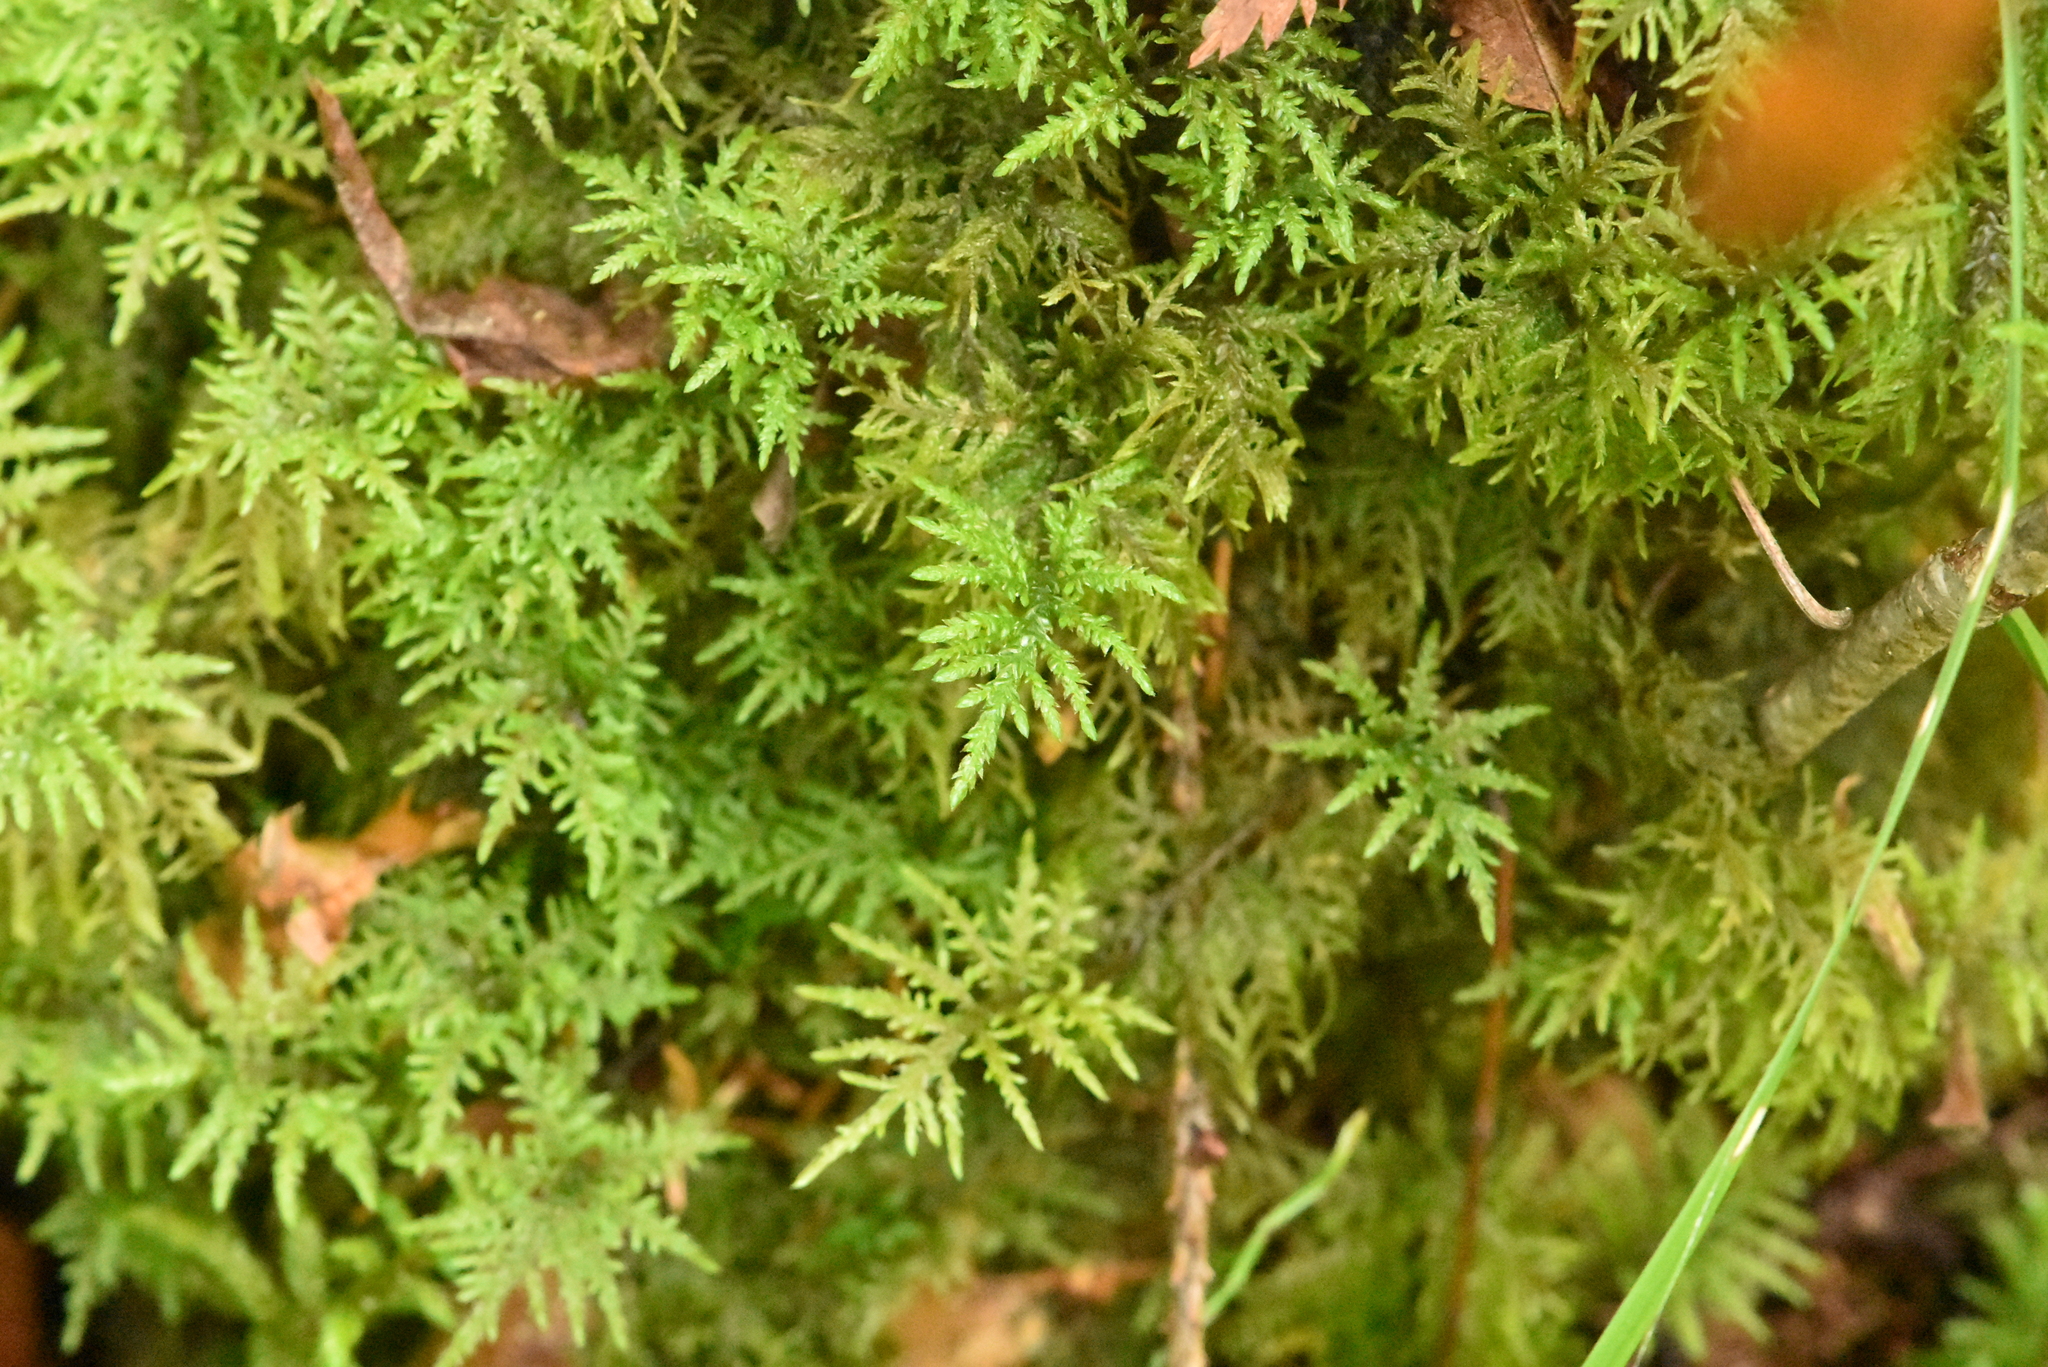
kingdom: Plantae
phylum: Bryophyta
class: Bryopsida
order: Hypnales
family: Hylocomiaceae
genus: Hylocomium
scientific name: Hylocomium splendens
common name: Stairstep moss
